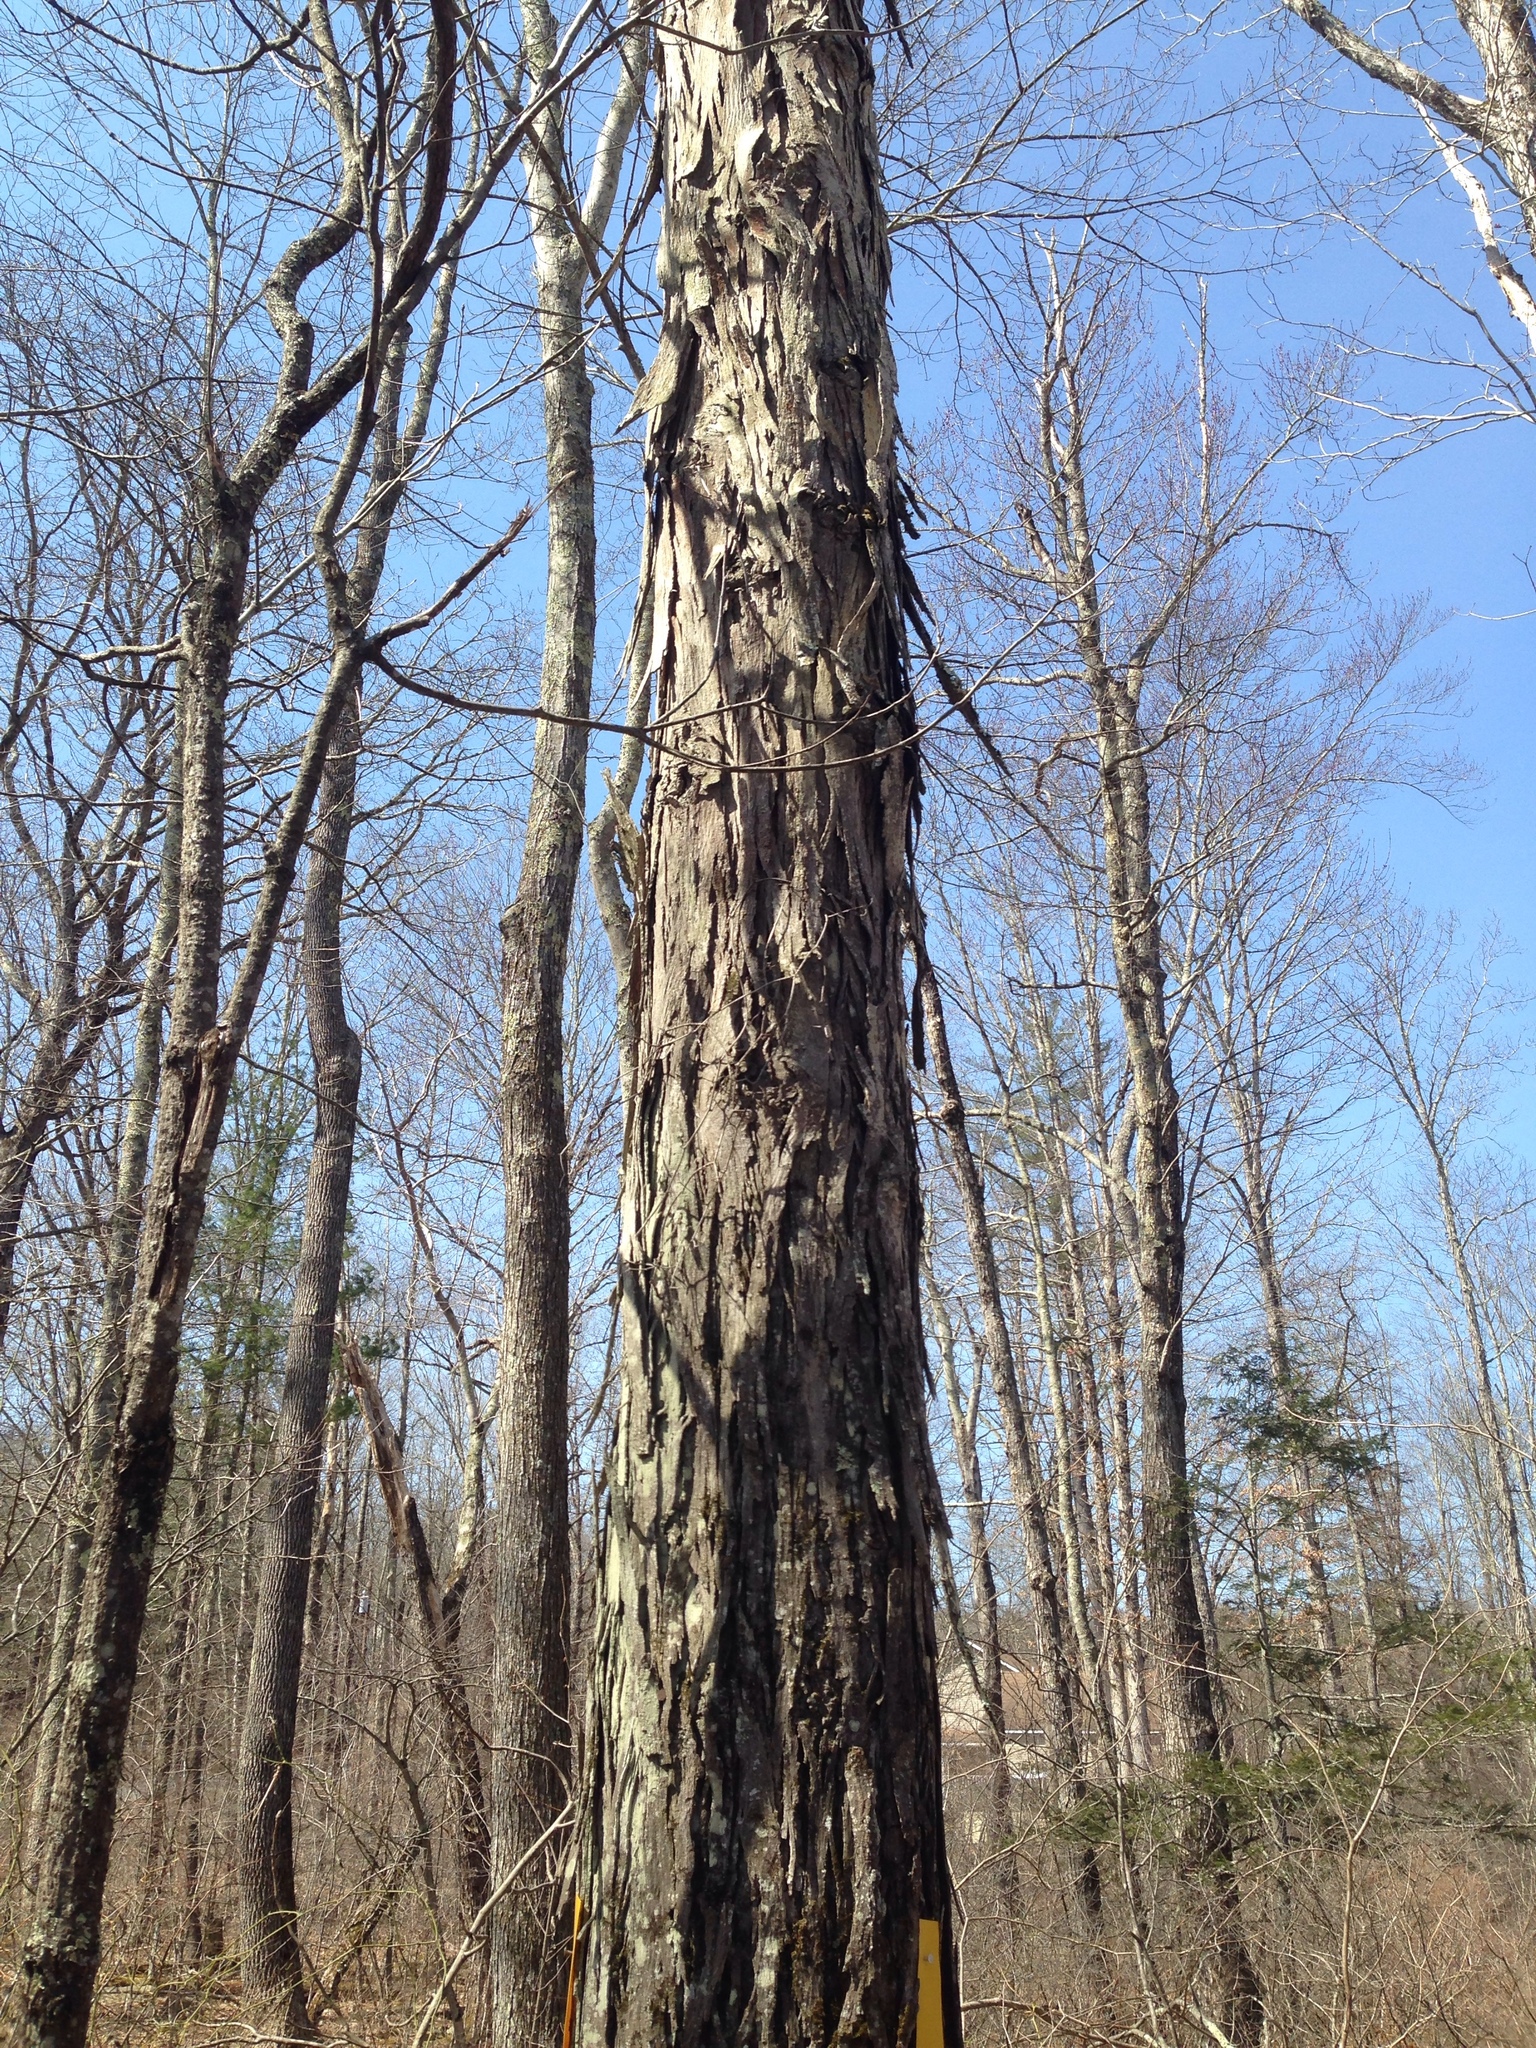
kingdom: Plantae
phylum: Tracheophyta
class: Magnoliopsida
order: Fagales
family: Juglandaceae
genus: Carya
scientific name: Carya ovata
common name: Shagbark hickory
